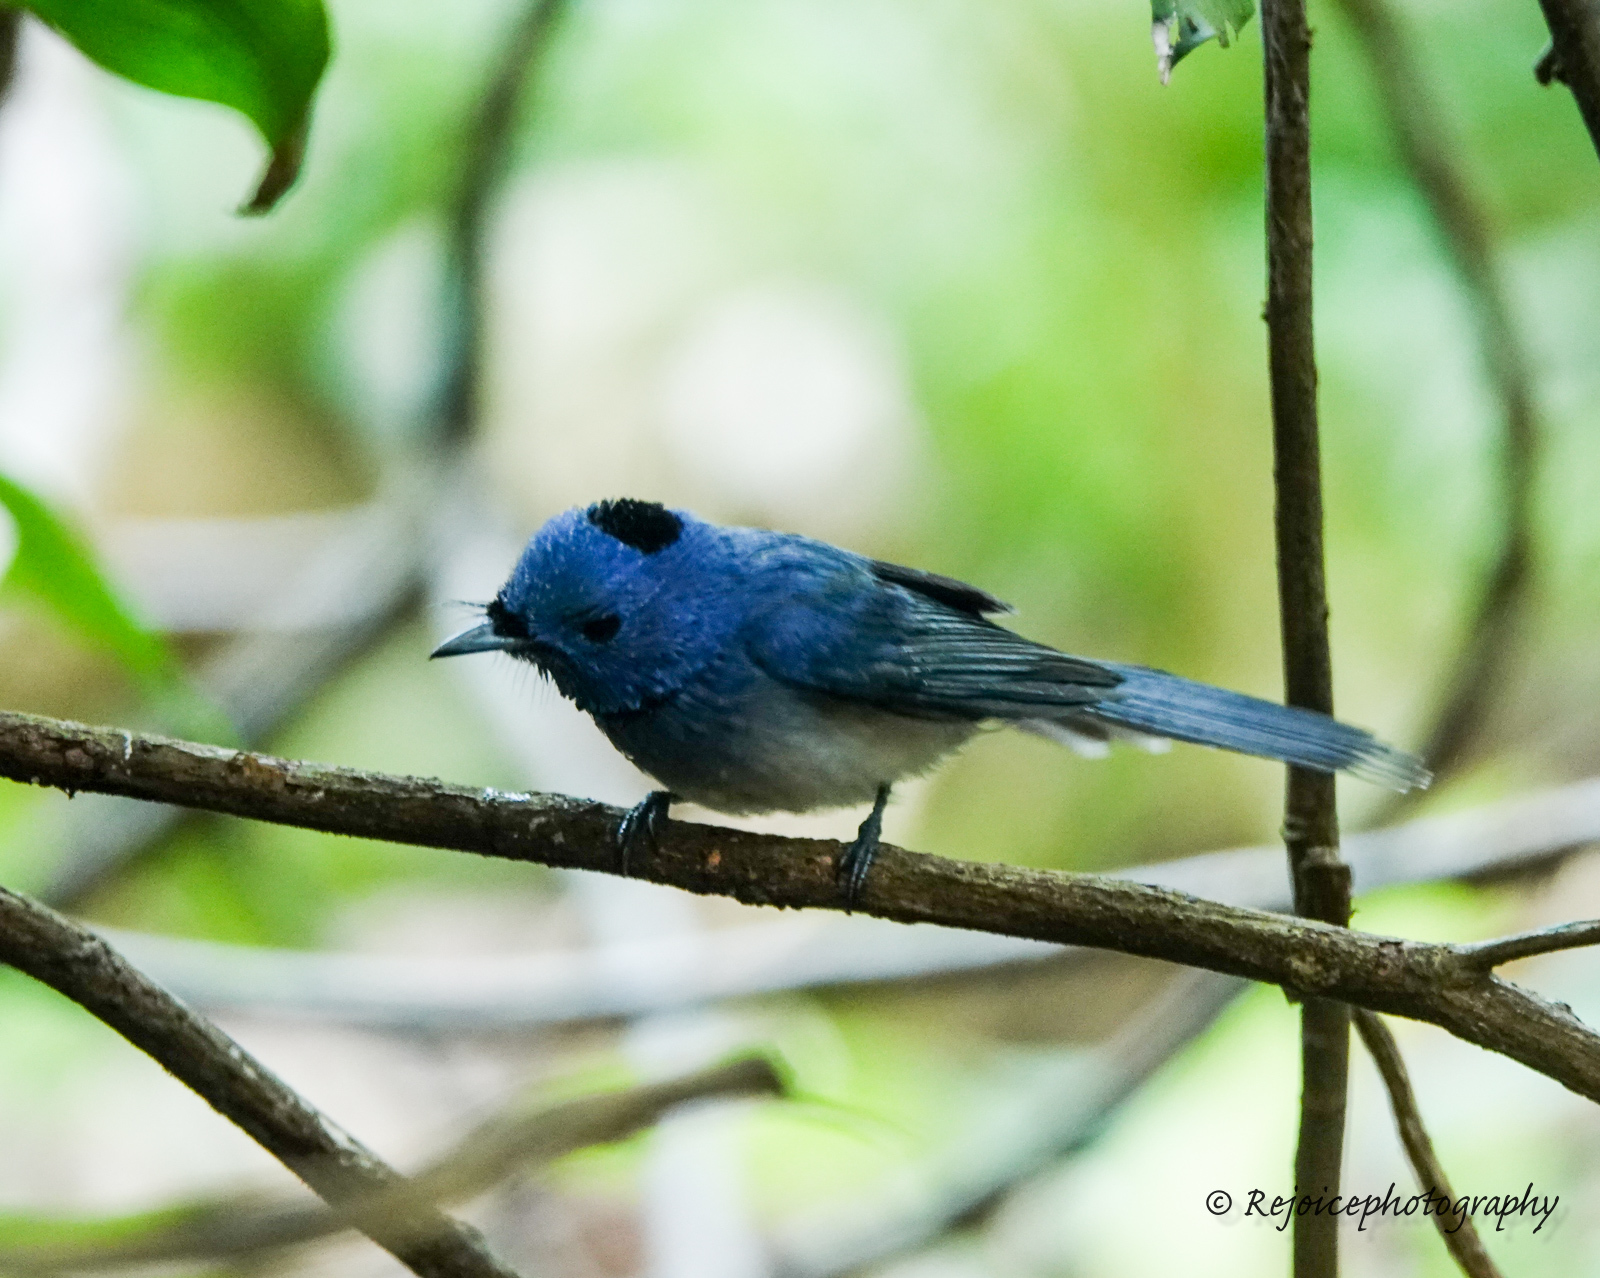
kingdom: Animalia
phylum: Chordata
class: Aves
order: Passeriformes
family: Monarchidae
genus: Hypothymis
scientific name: Hypothymis azurea
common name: Black-naped monarch
